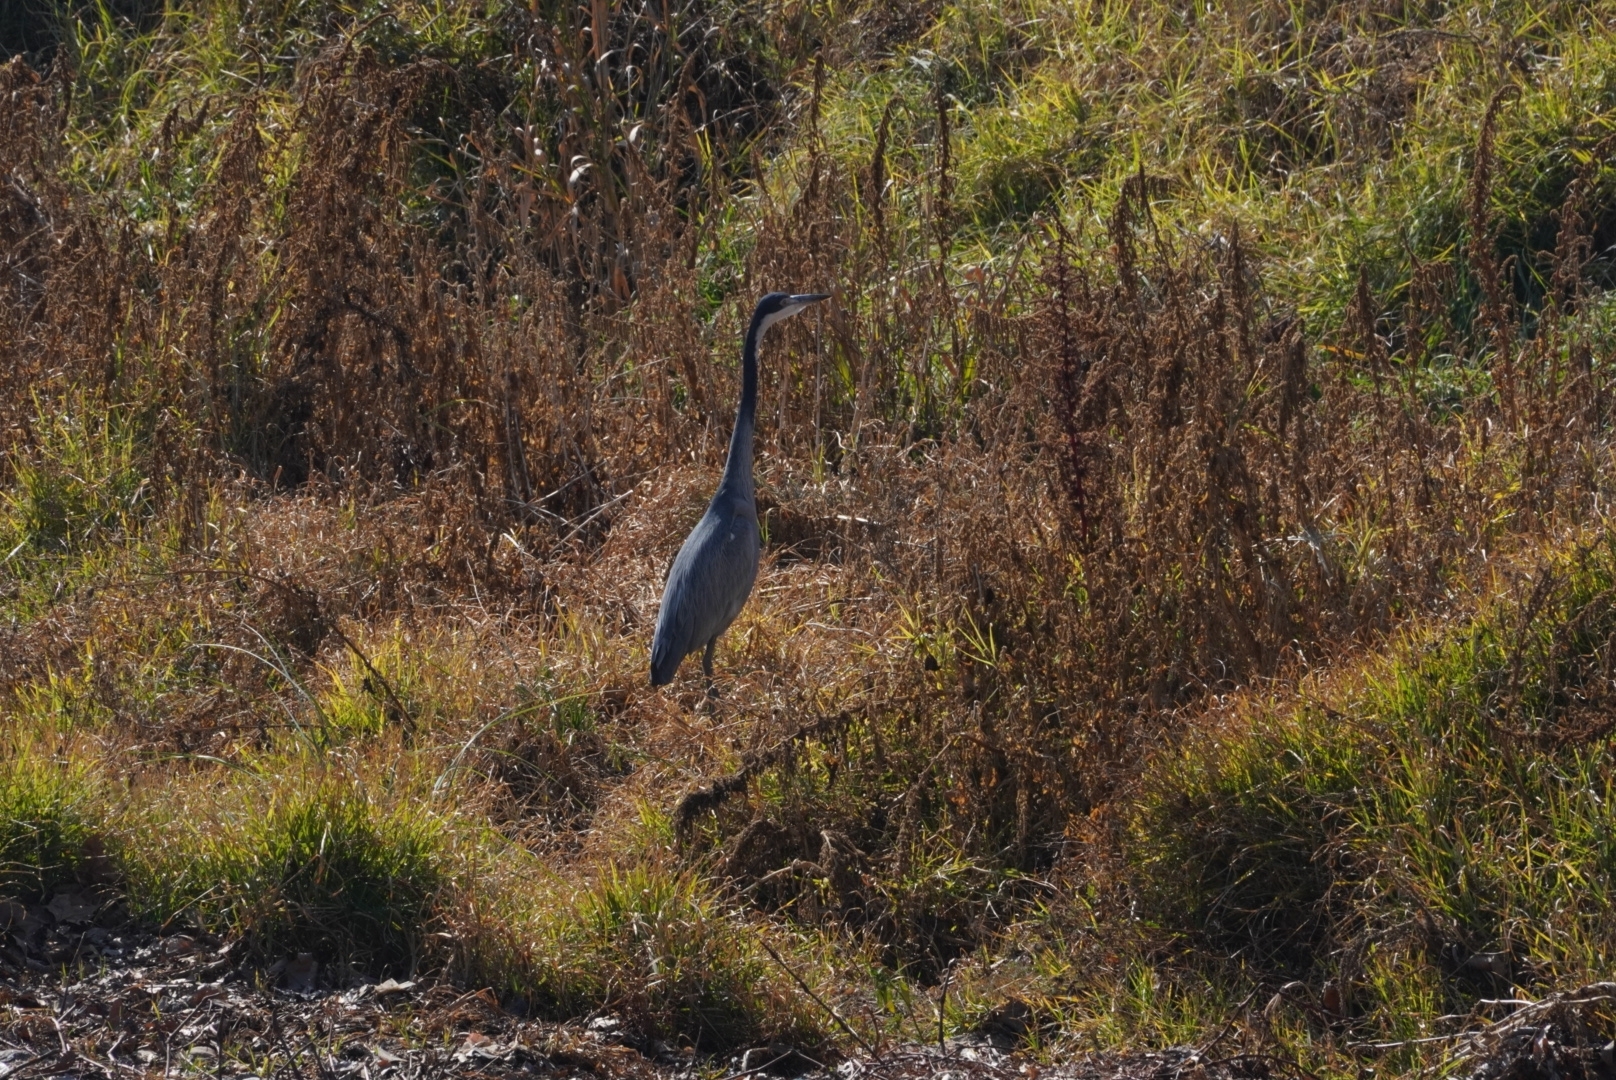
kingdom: Animalia
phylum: Chordata
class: Aves
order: Pelecaniformes
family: Ardeidae
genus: Ardea
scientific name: Ardea melanocephala
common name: Black-headed heron
